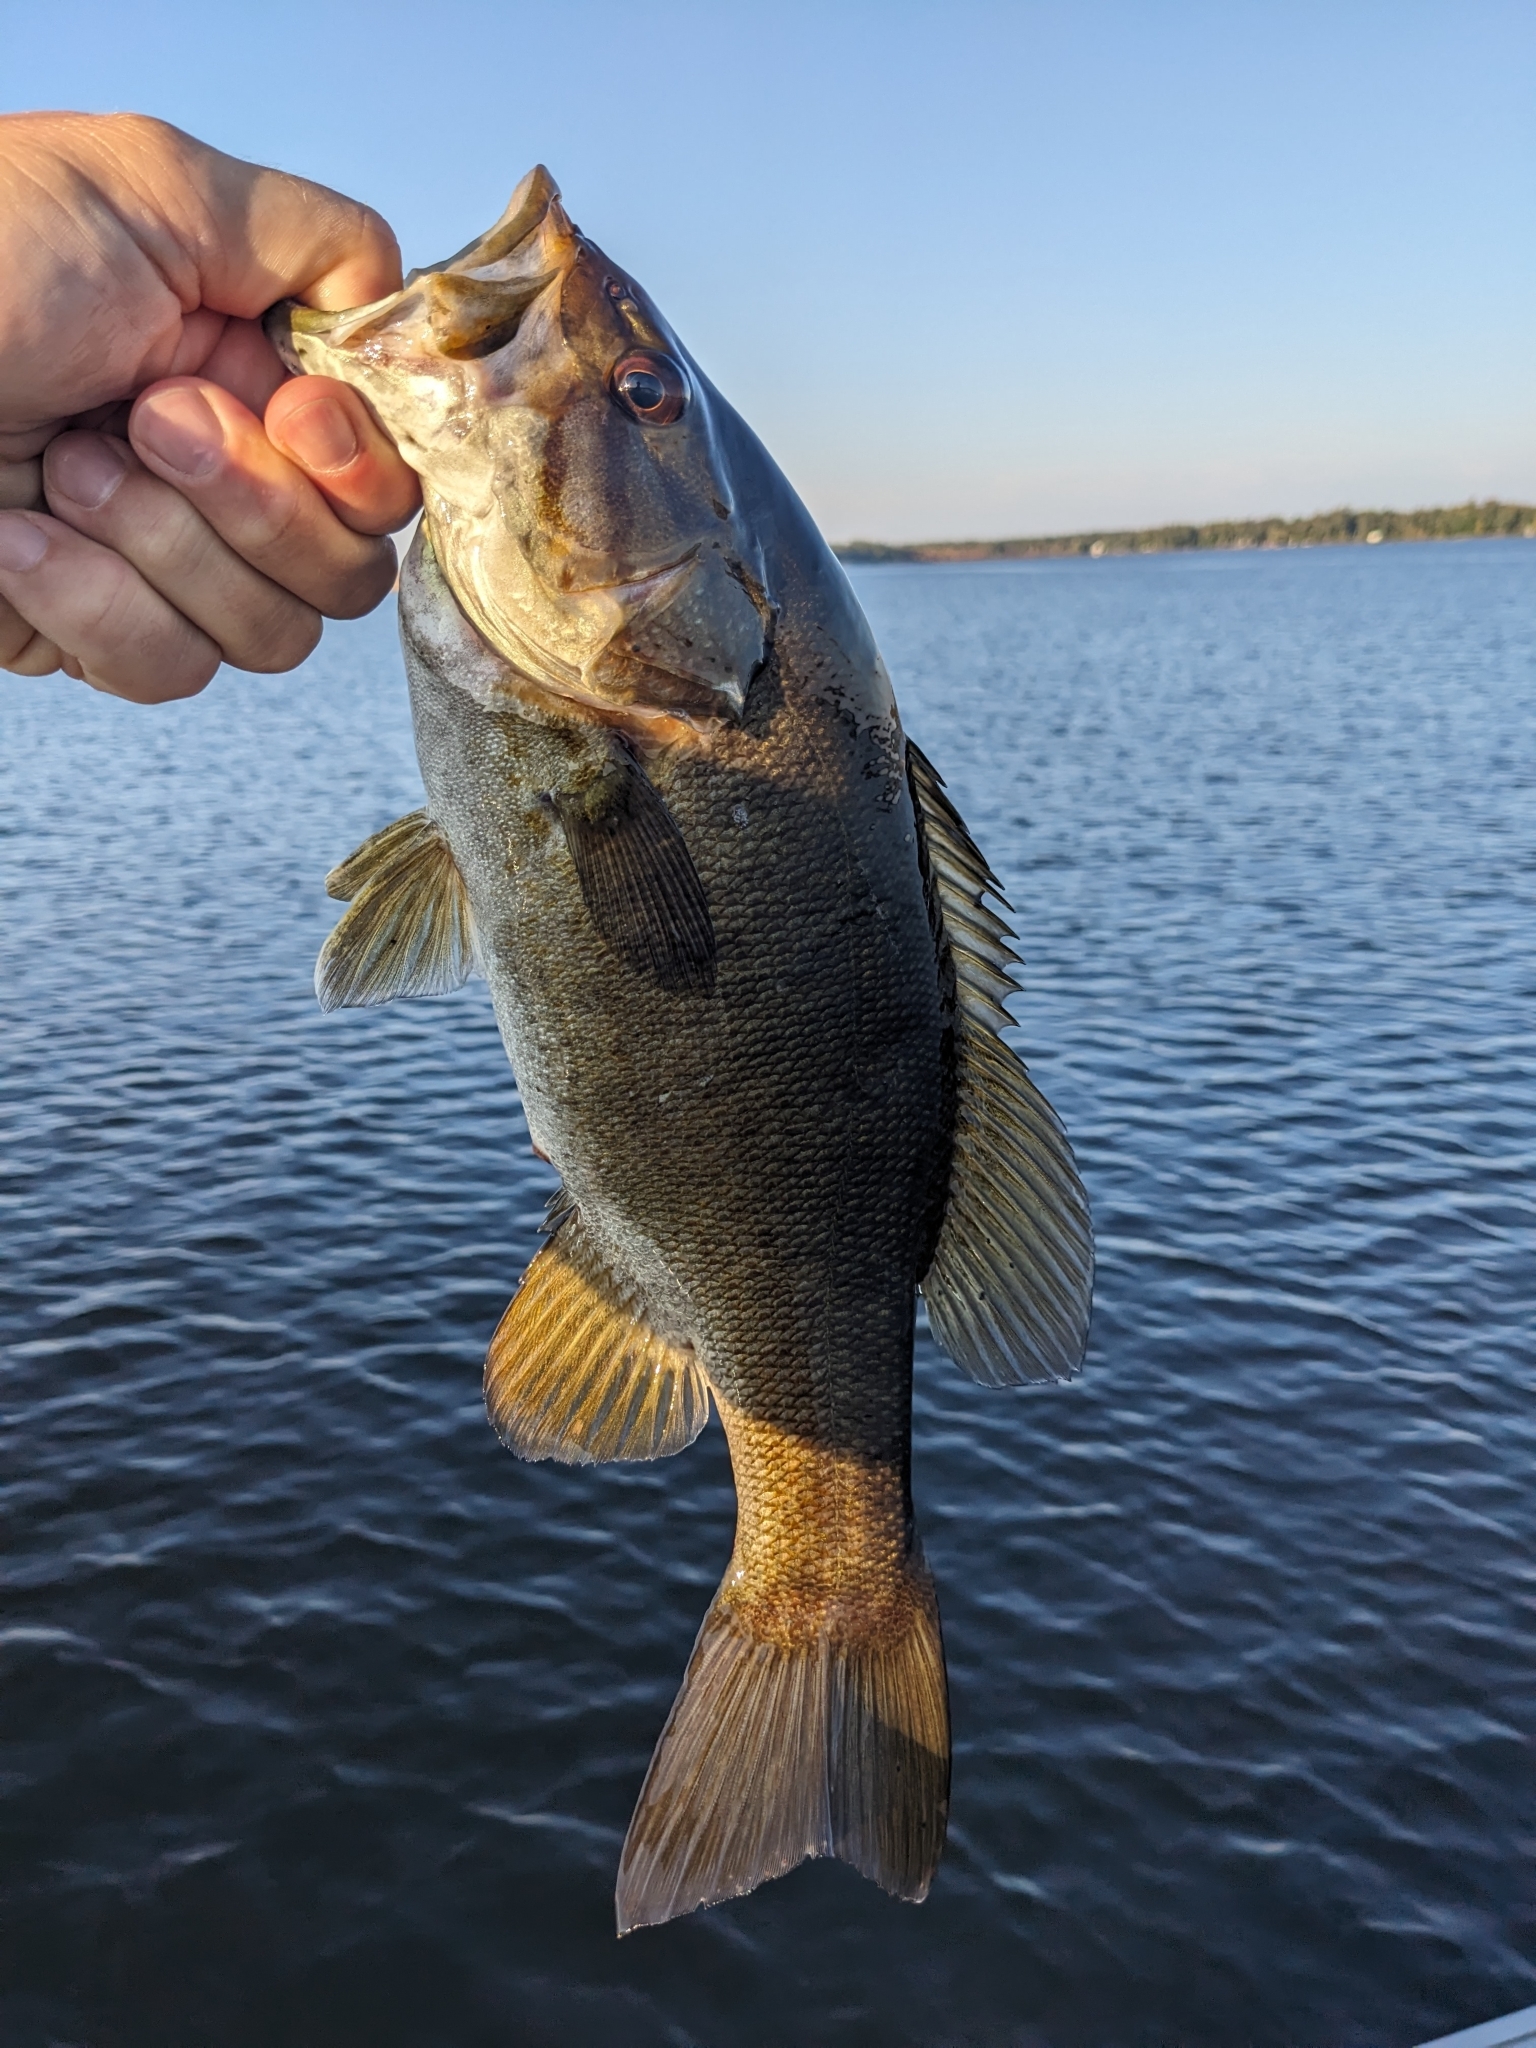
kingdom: Animalia
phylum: Chordata
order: Perciformes
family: Centrarchidae
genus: Micropterus
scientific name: Micropterus dolomieu
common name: Smallmouth bass
